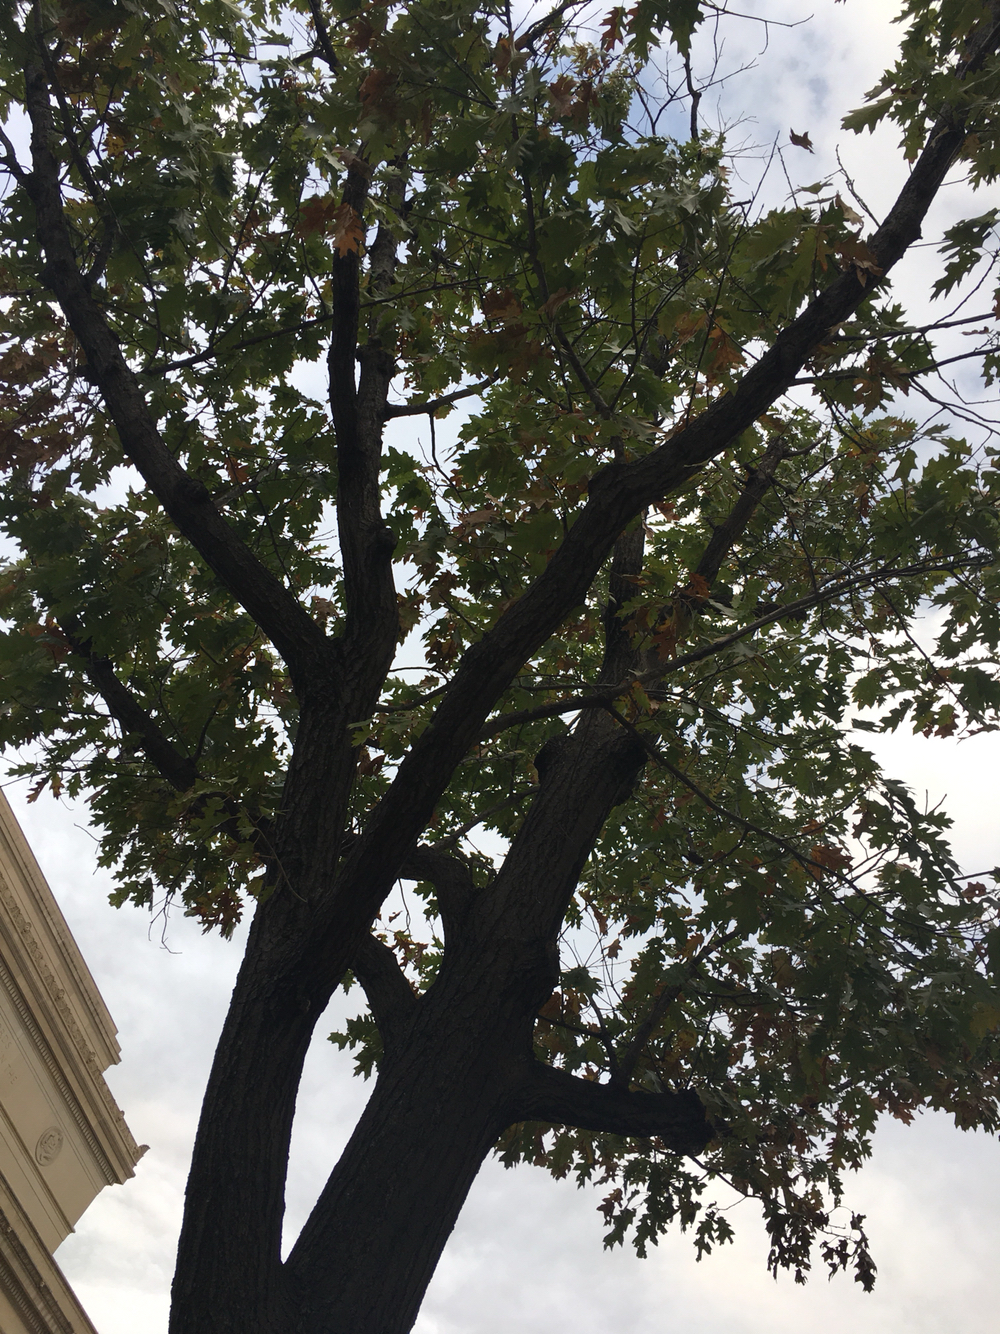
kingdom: Fungi
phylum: Basidiomycota
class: Agaricomycetes
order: Polyporales
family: Grifolaceae
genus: Grifola
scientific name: Grifola frondosa
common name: Hen of the woods
